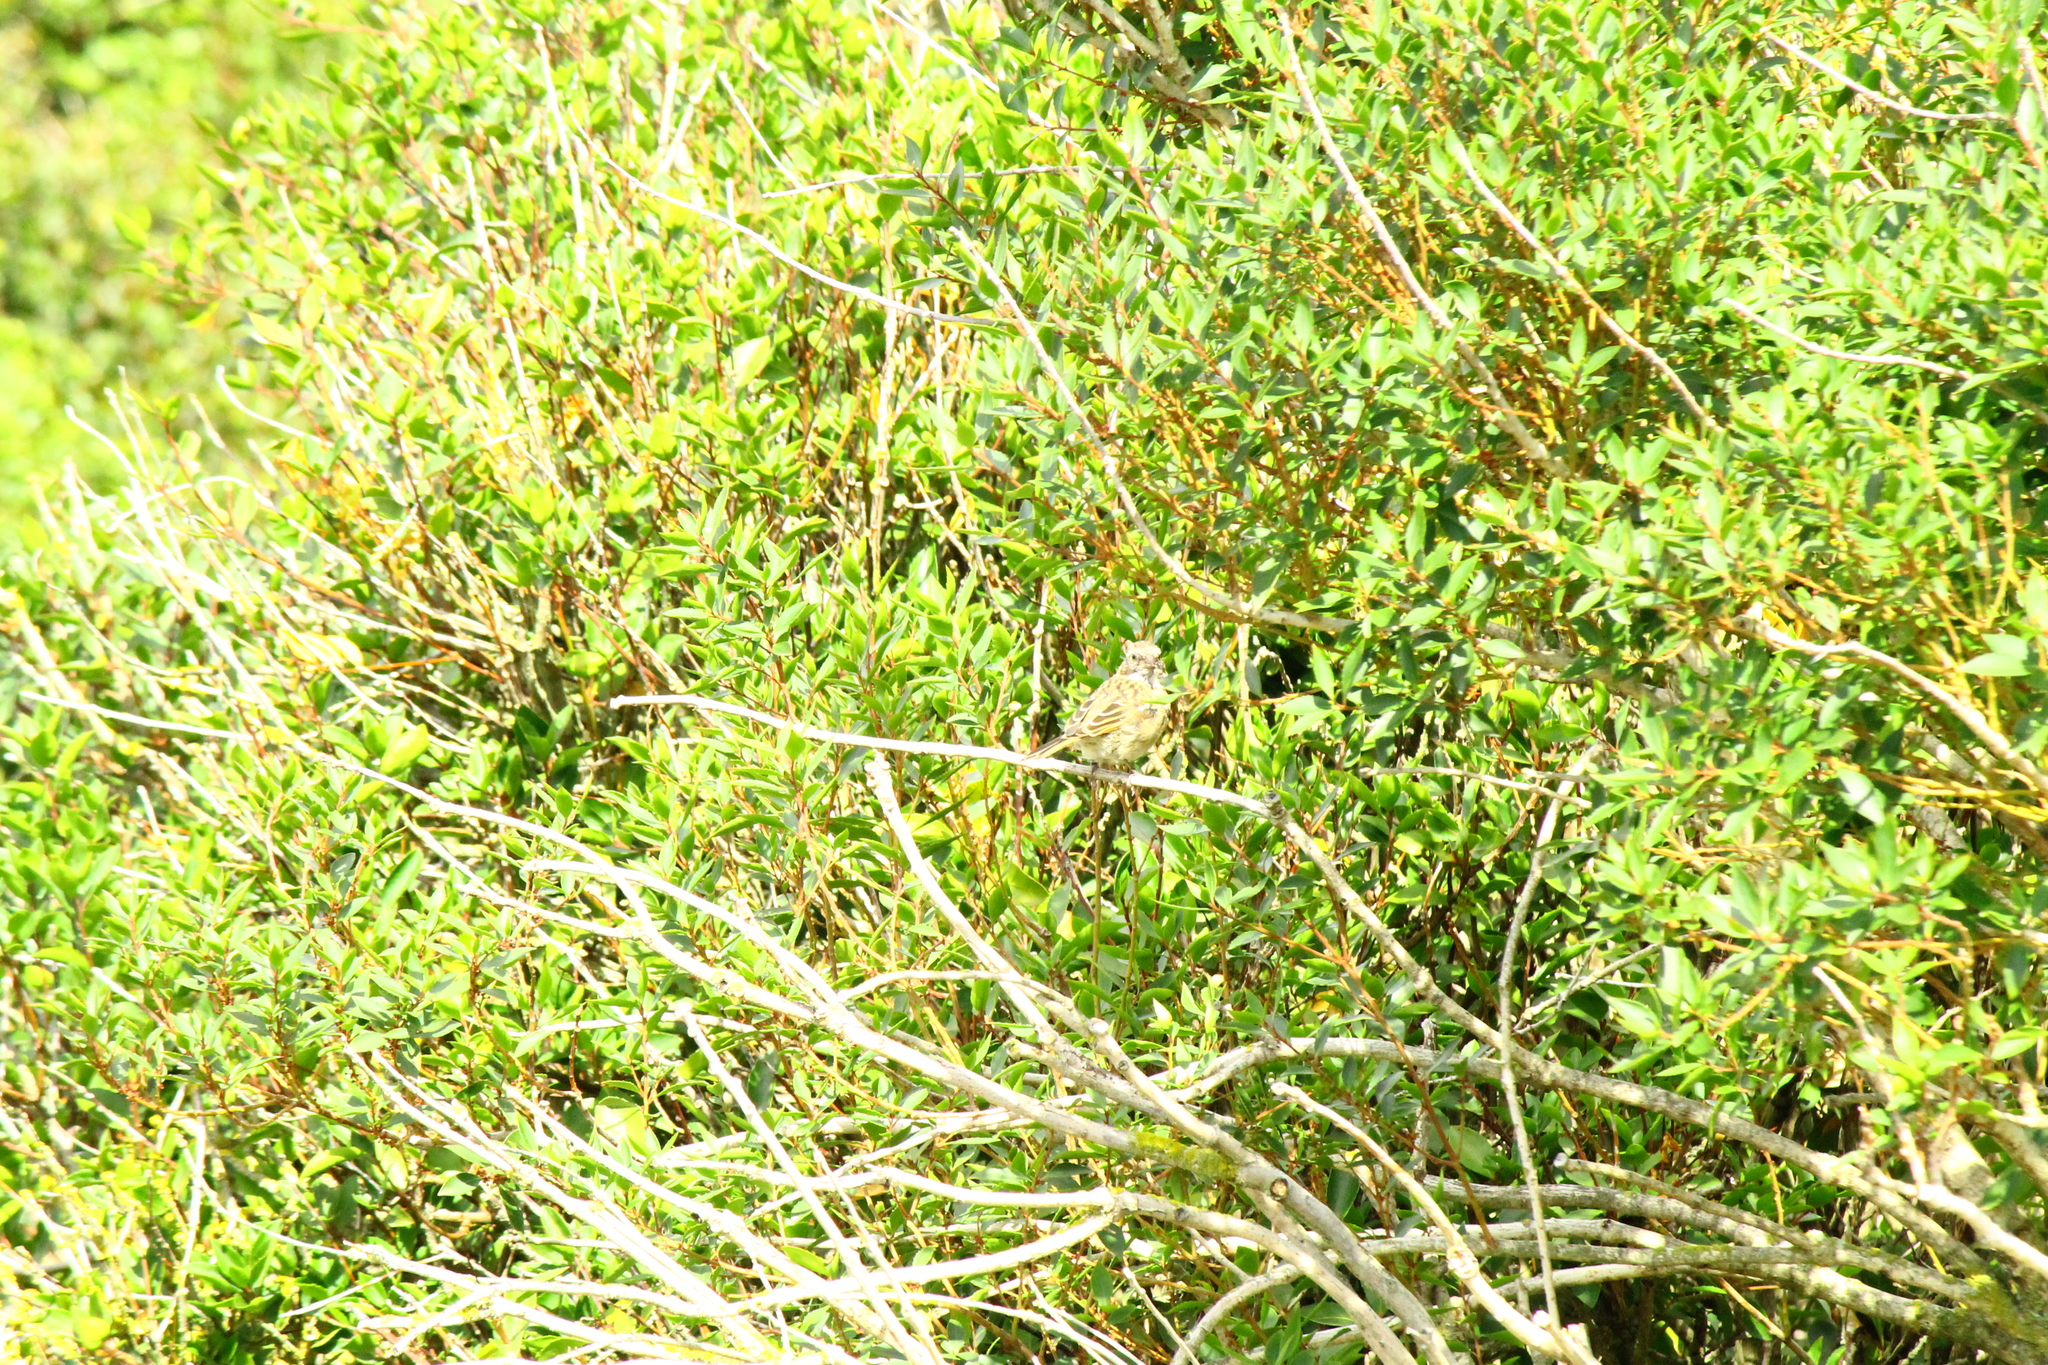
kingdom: Animalia
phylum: Chordata
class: Aves
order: Passeriformes
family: Passerellidae
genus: Zonotrichia
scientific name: Zonotrichia capensis
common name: Rufous-collared sparrow
